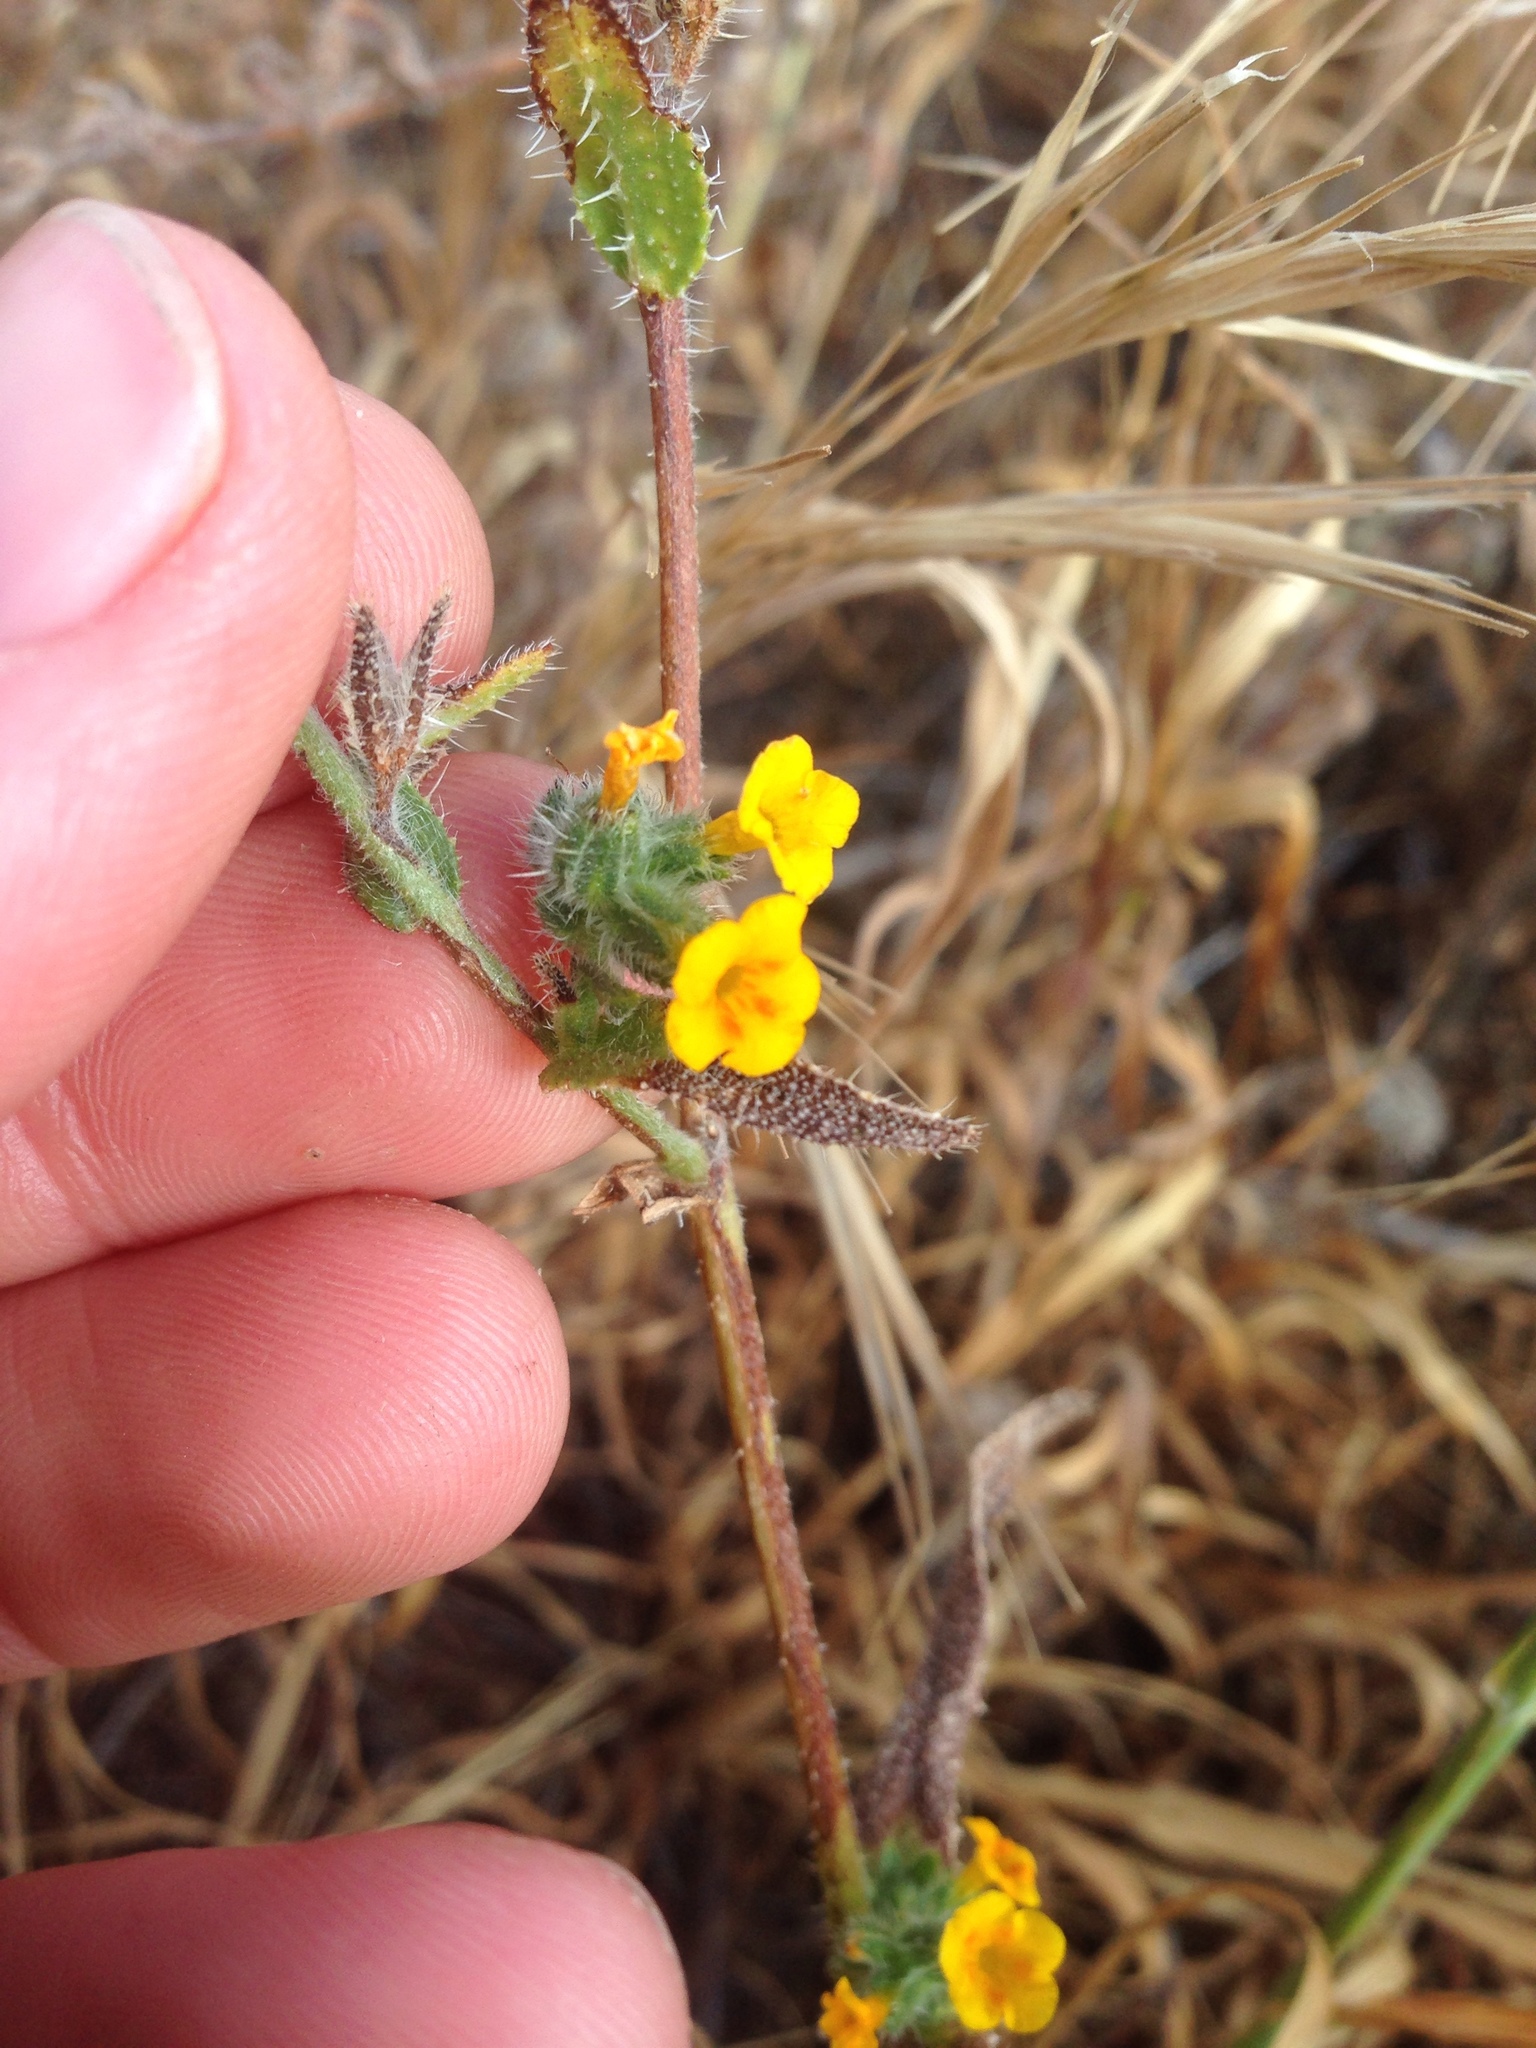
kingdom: Plantae
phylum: Tracheophyta
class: Magnoliopsida
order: Boraginales
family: Boraginaceae
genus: Amsinckia
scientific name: Amsinckia menziesii
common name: Menzies' fiddleneck
